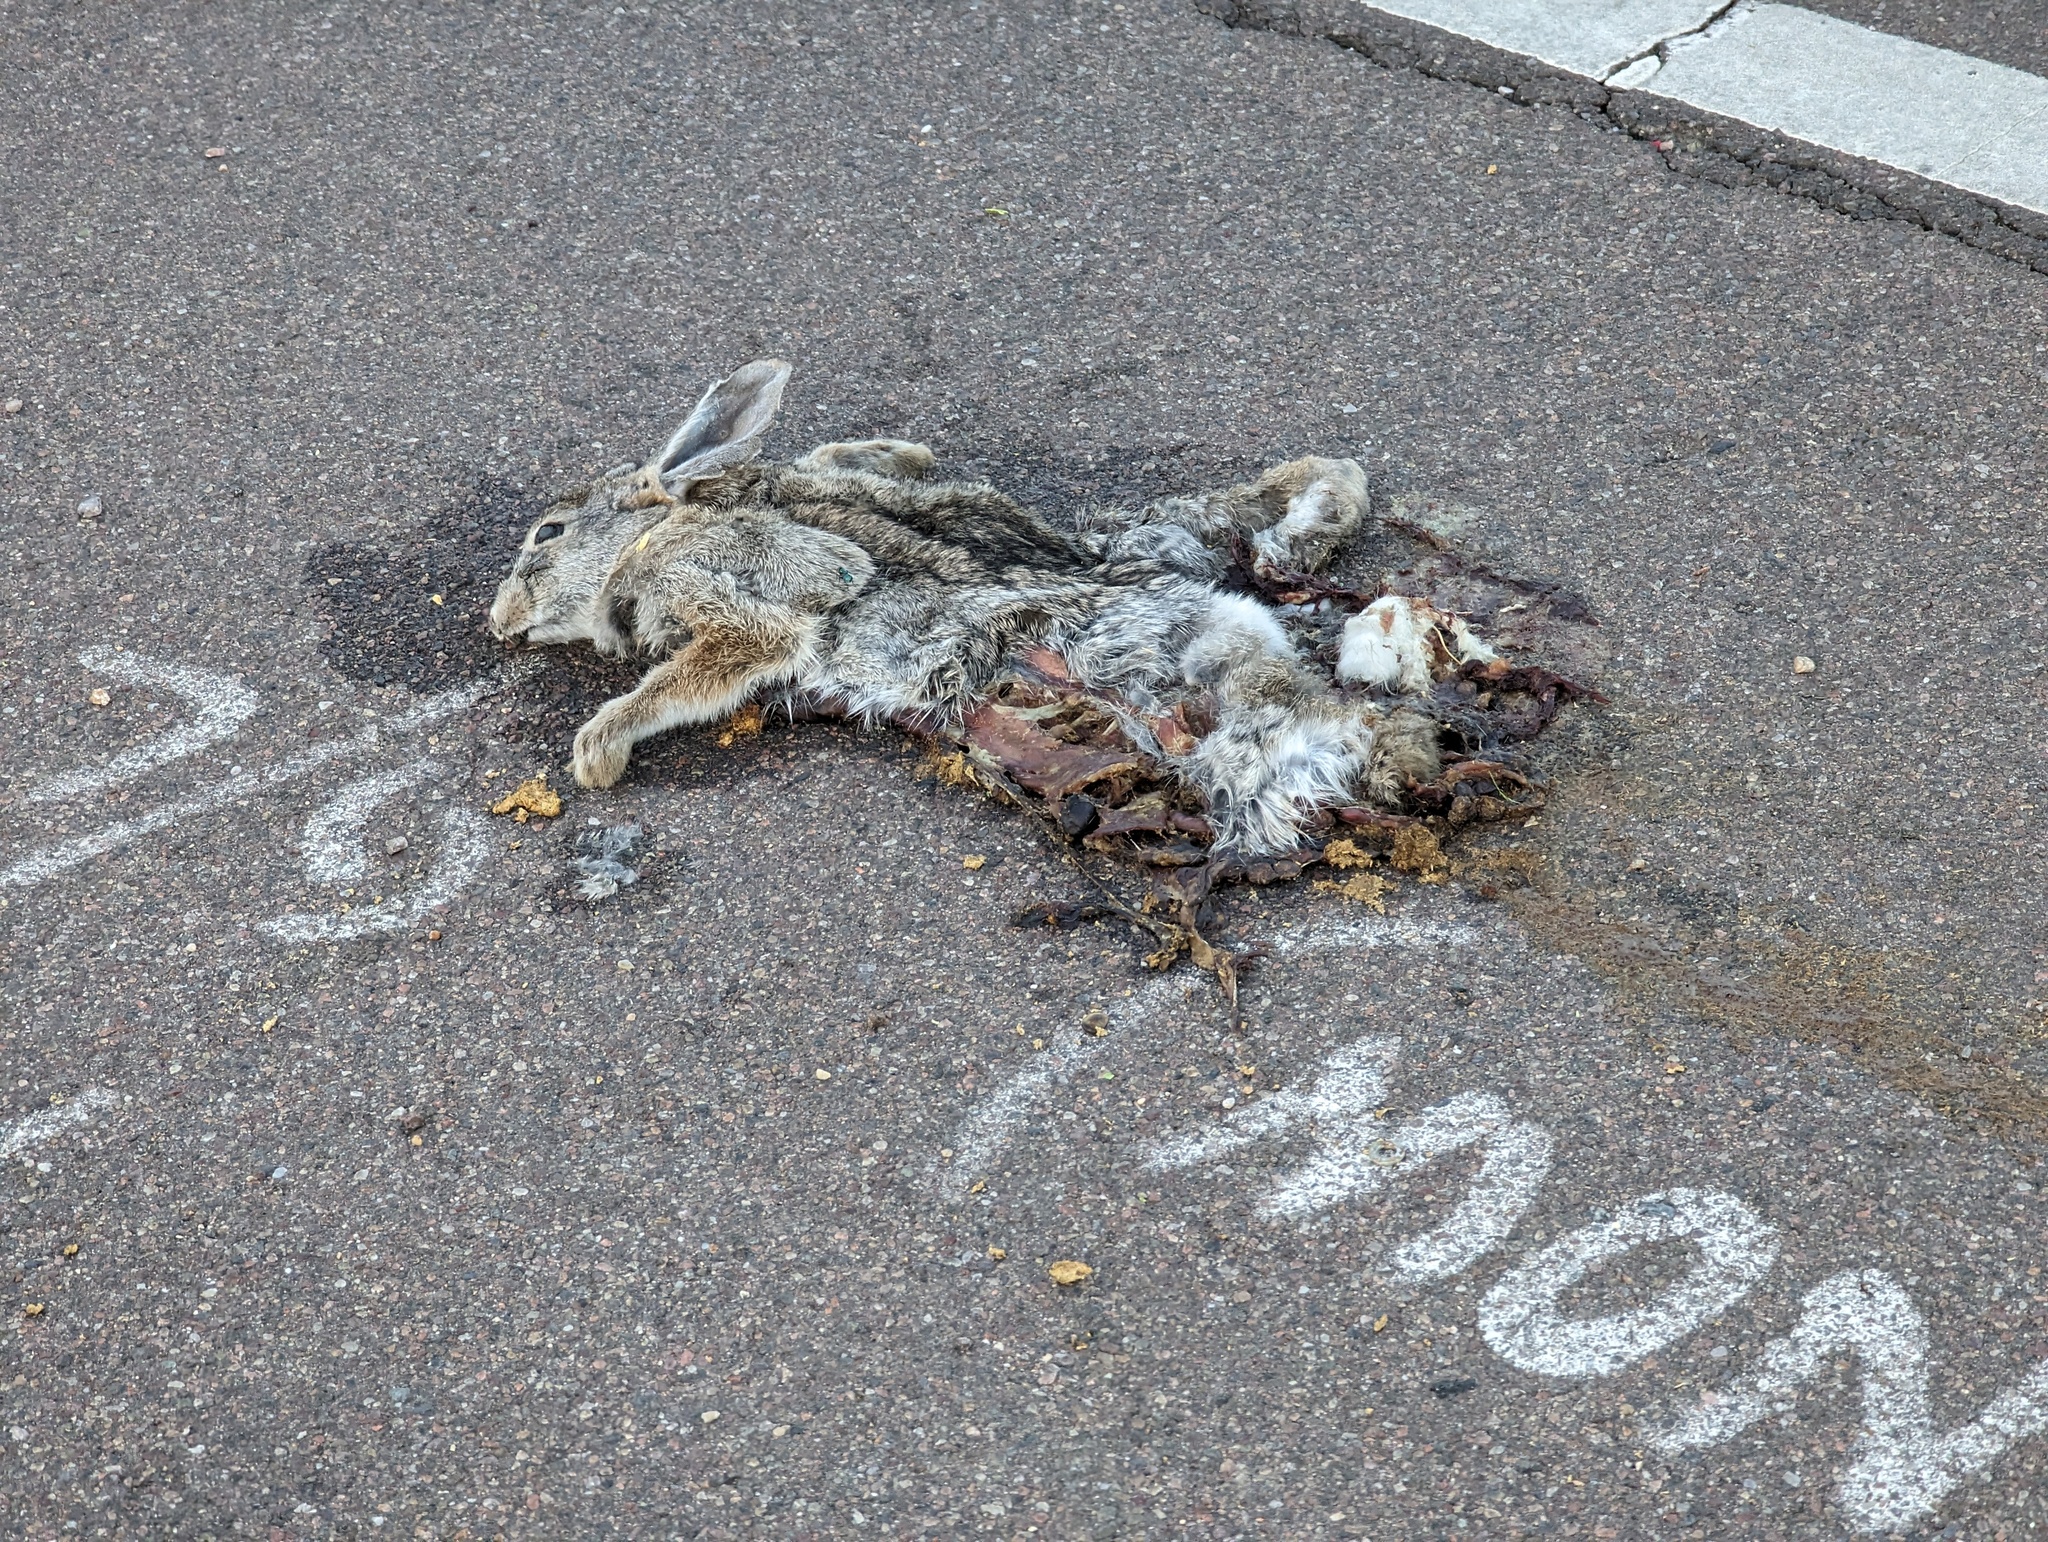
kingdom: Animalia
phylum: Chordata
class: Mammalia
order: Lagomorpha
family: Leporidae
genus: Sylvilagus
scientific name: Sylvilagus audubonii
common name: Desert cottontail
